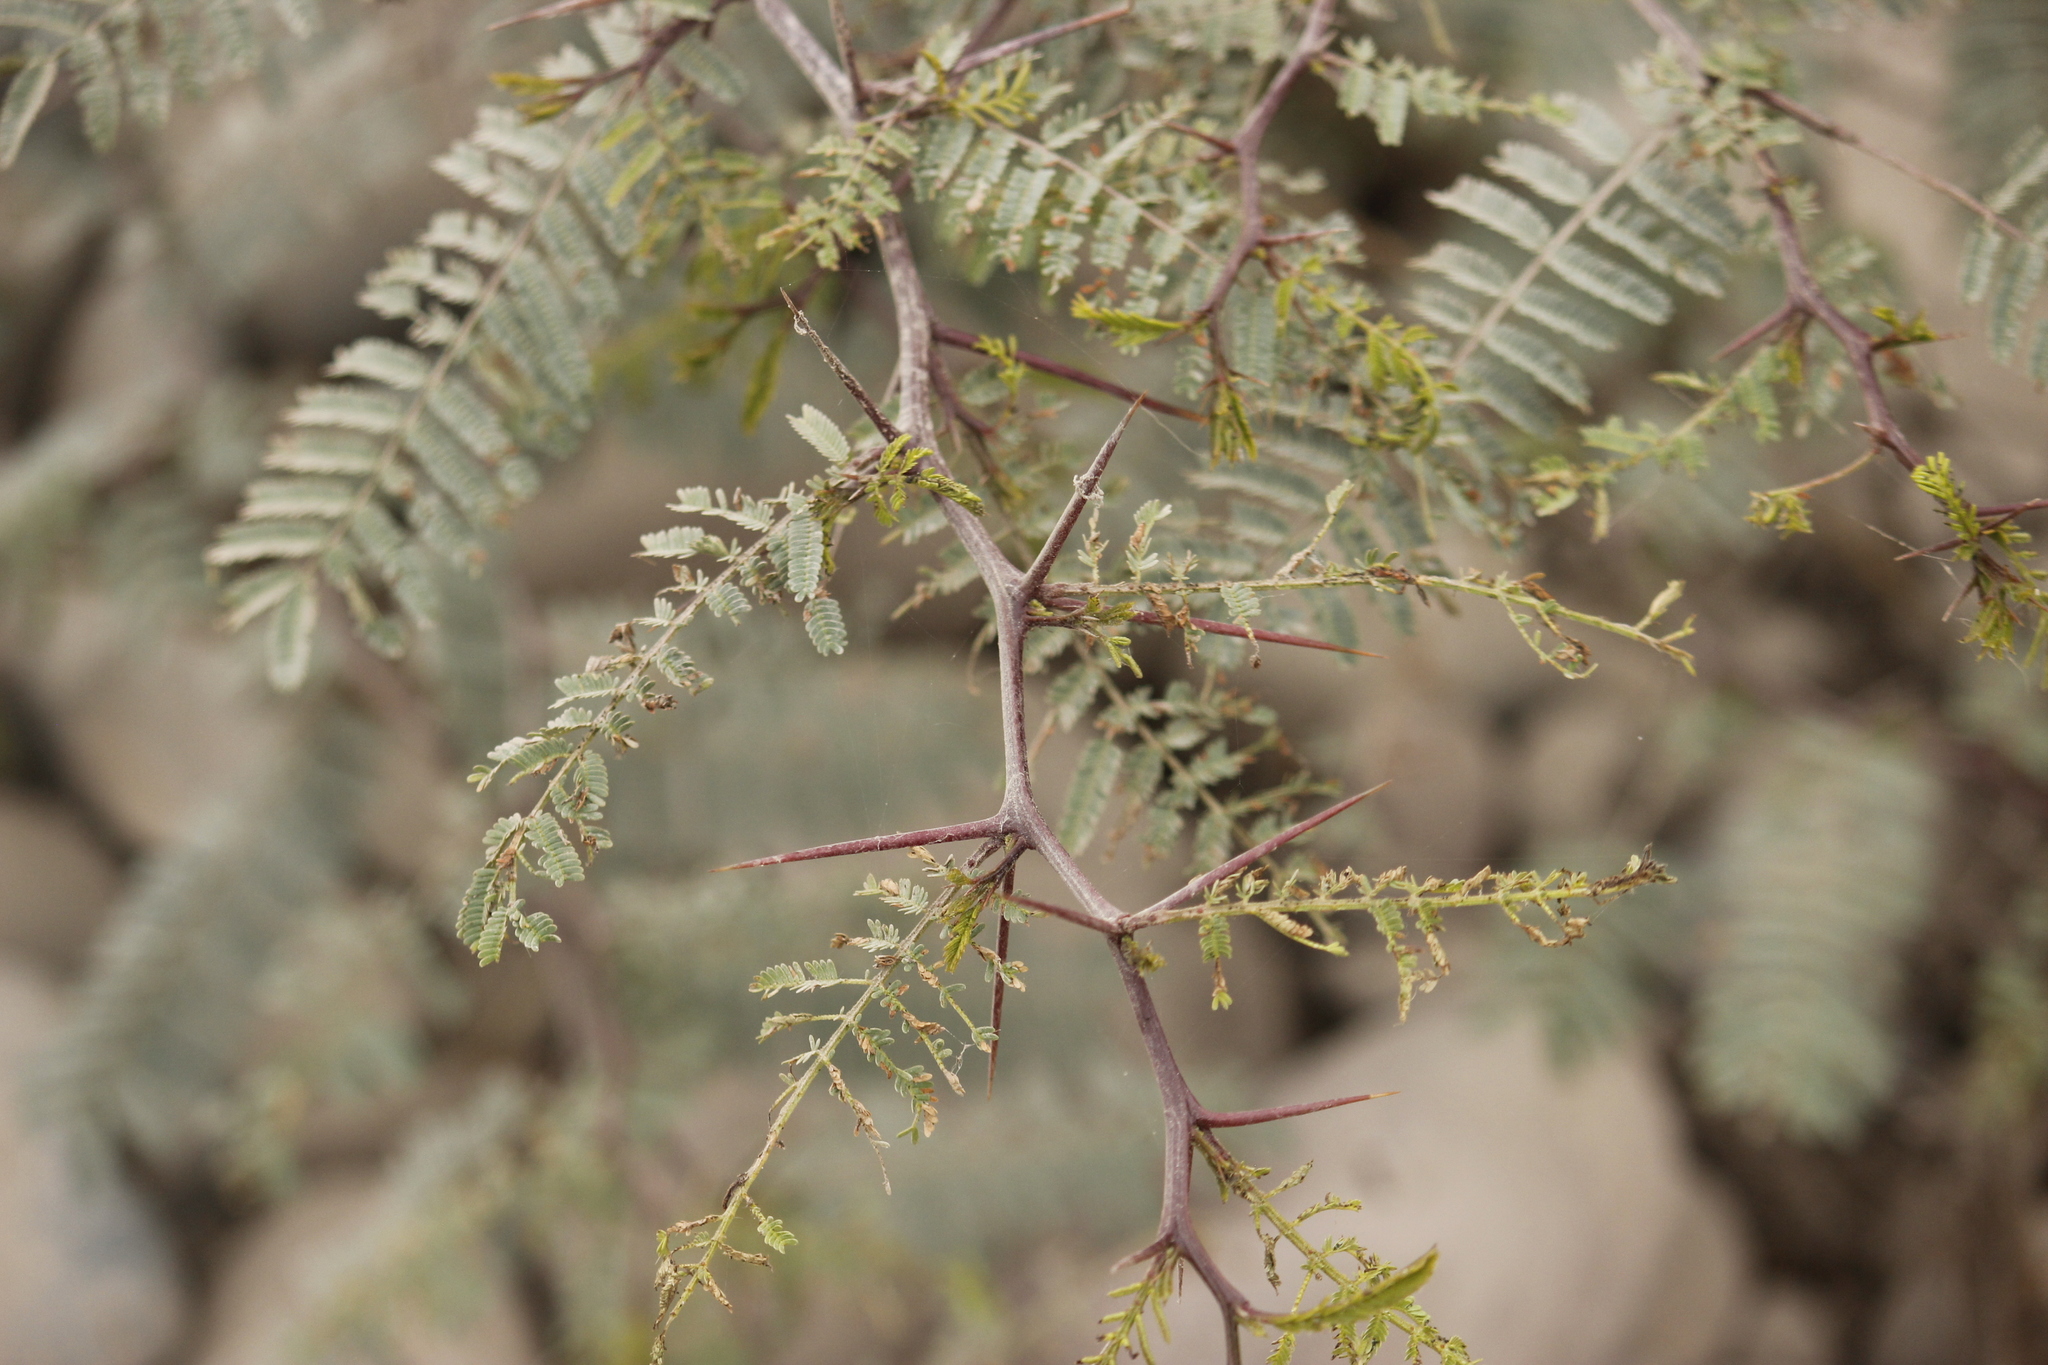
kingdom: Plantae
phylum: Tracheophyta
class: Magnoliopsida
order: Fabales
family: Fabaceae
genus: Vachellia
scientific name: Vachellia macracantha
